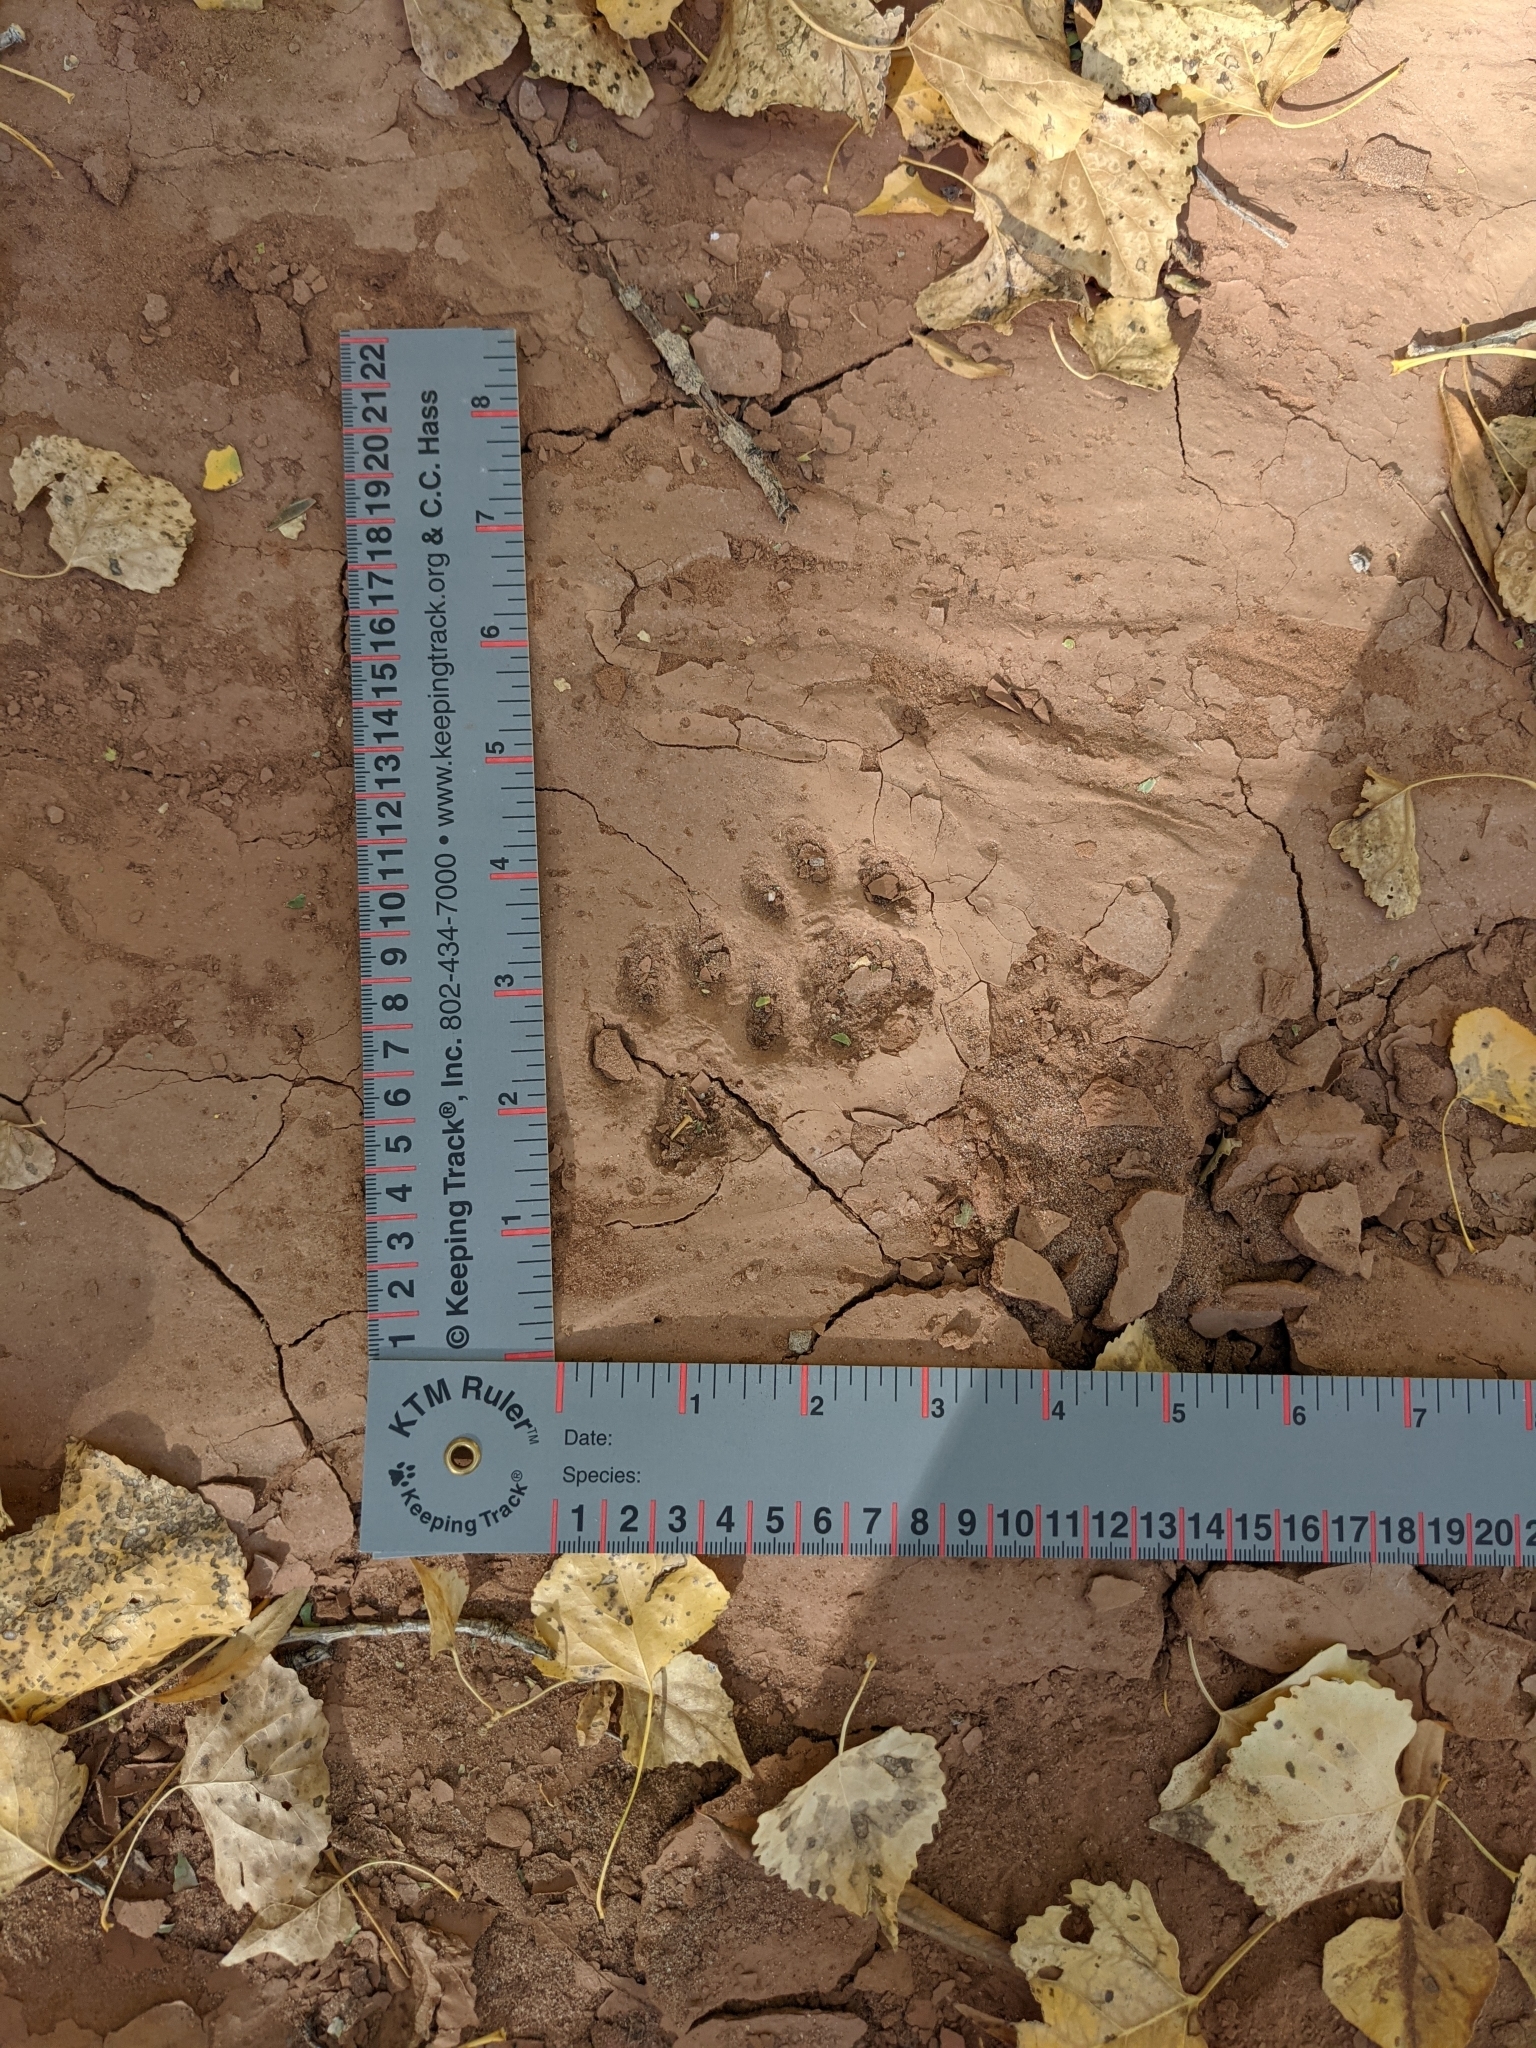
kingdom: Animalia
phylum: Chordata
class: Mammalia
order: Carnivora
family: Felidae
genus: Lynx
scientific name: Lynx rufus
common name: Bobcat
